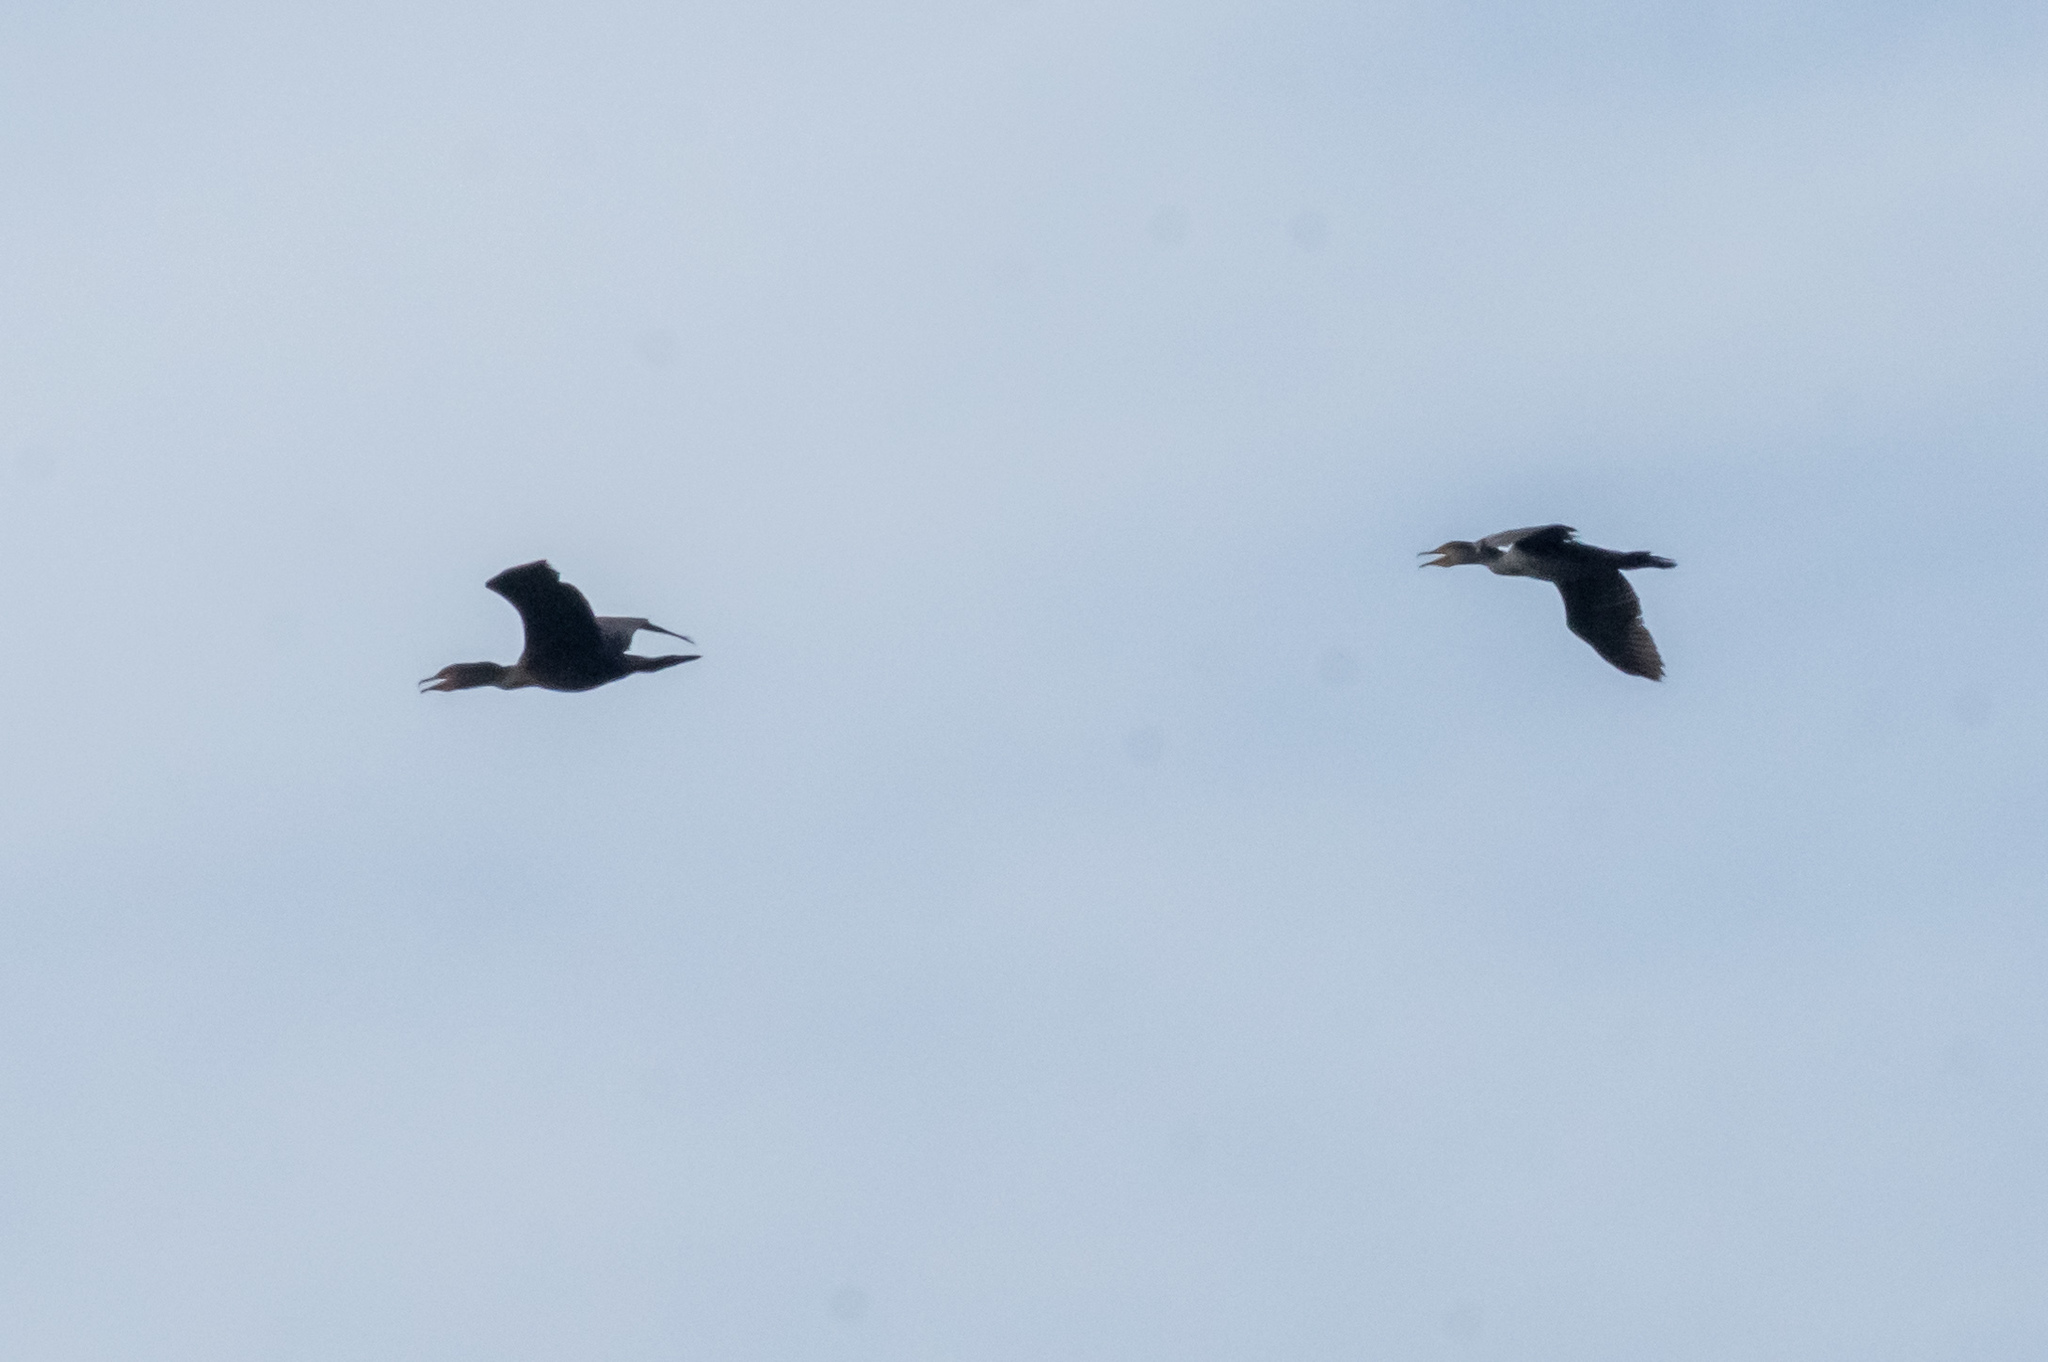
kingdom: Animalia
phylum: Chordata
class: Aves
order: Suliformes
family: Phalacrocoracidae
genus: Phalacrocorax
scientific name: Phalacrocorax auritus
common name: Double-crested cormorant
